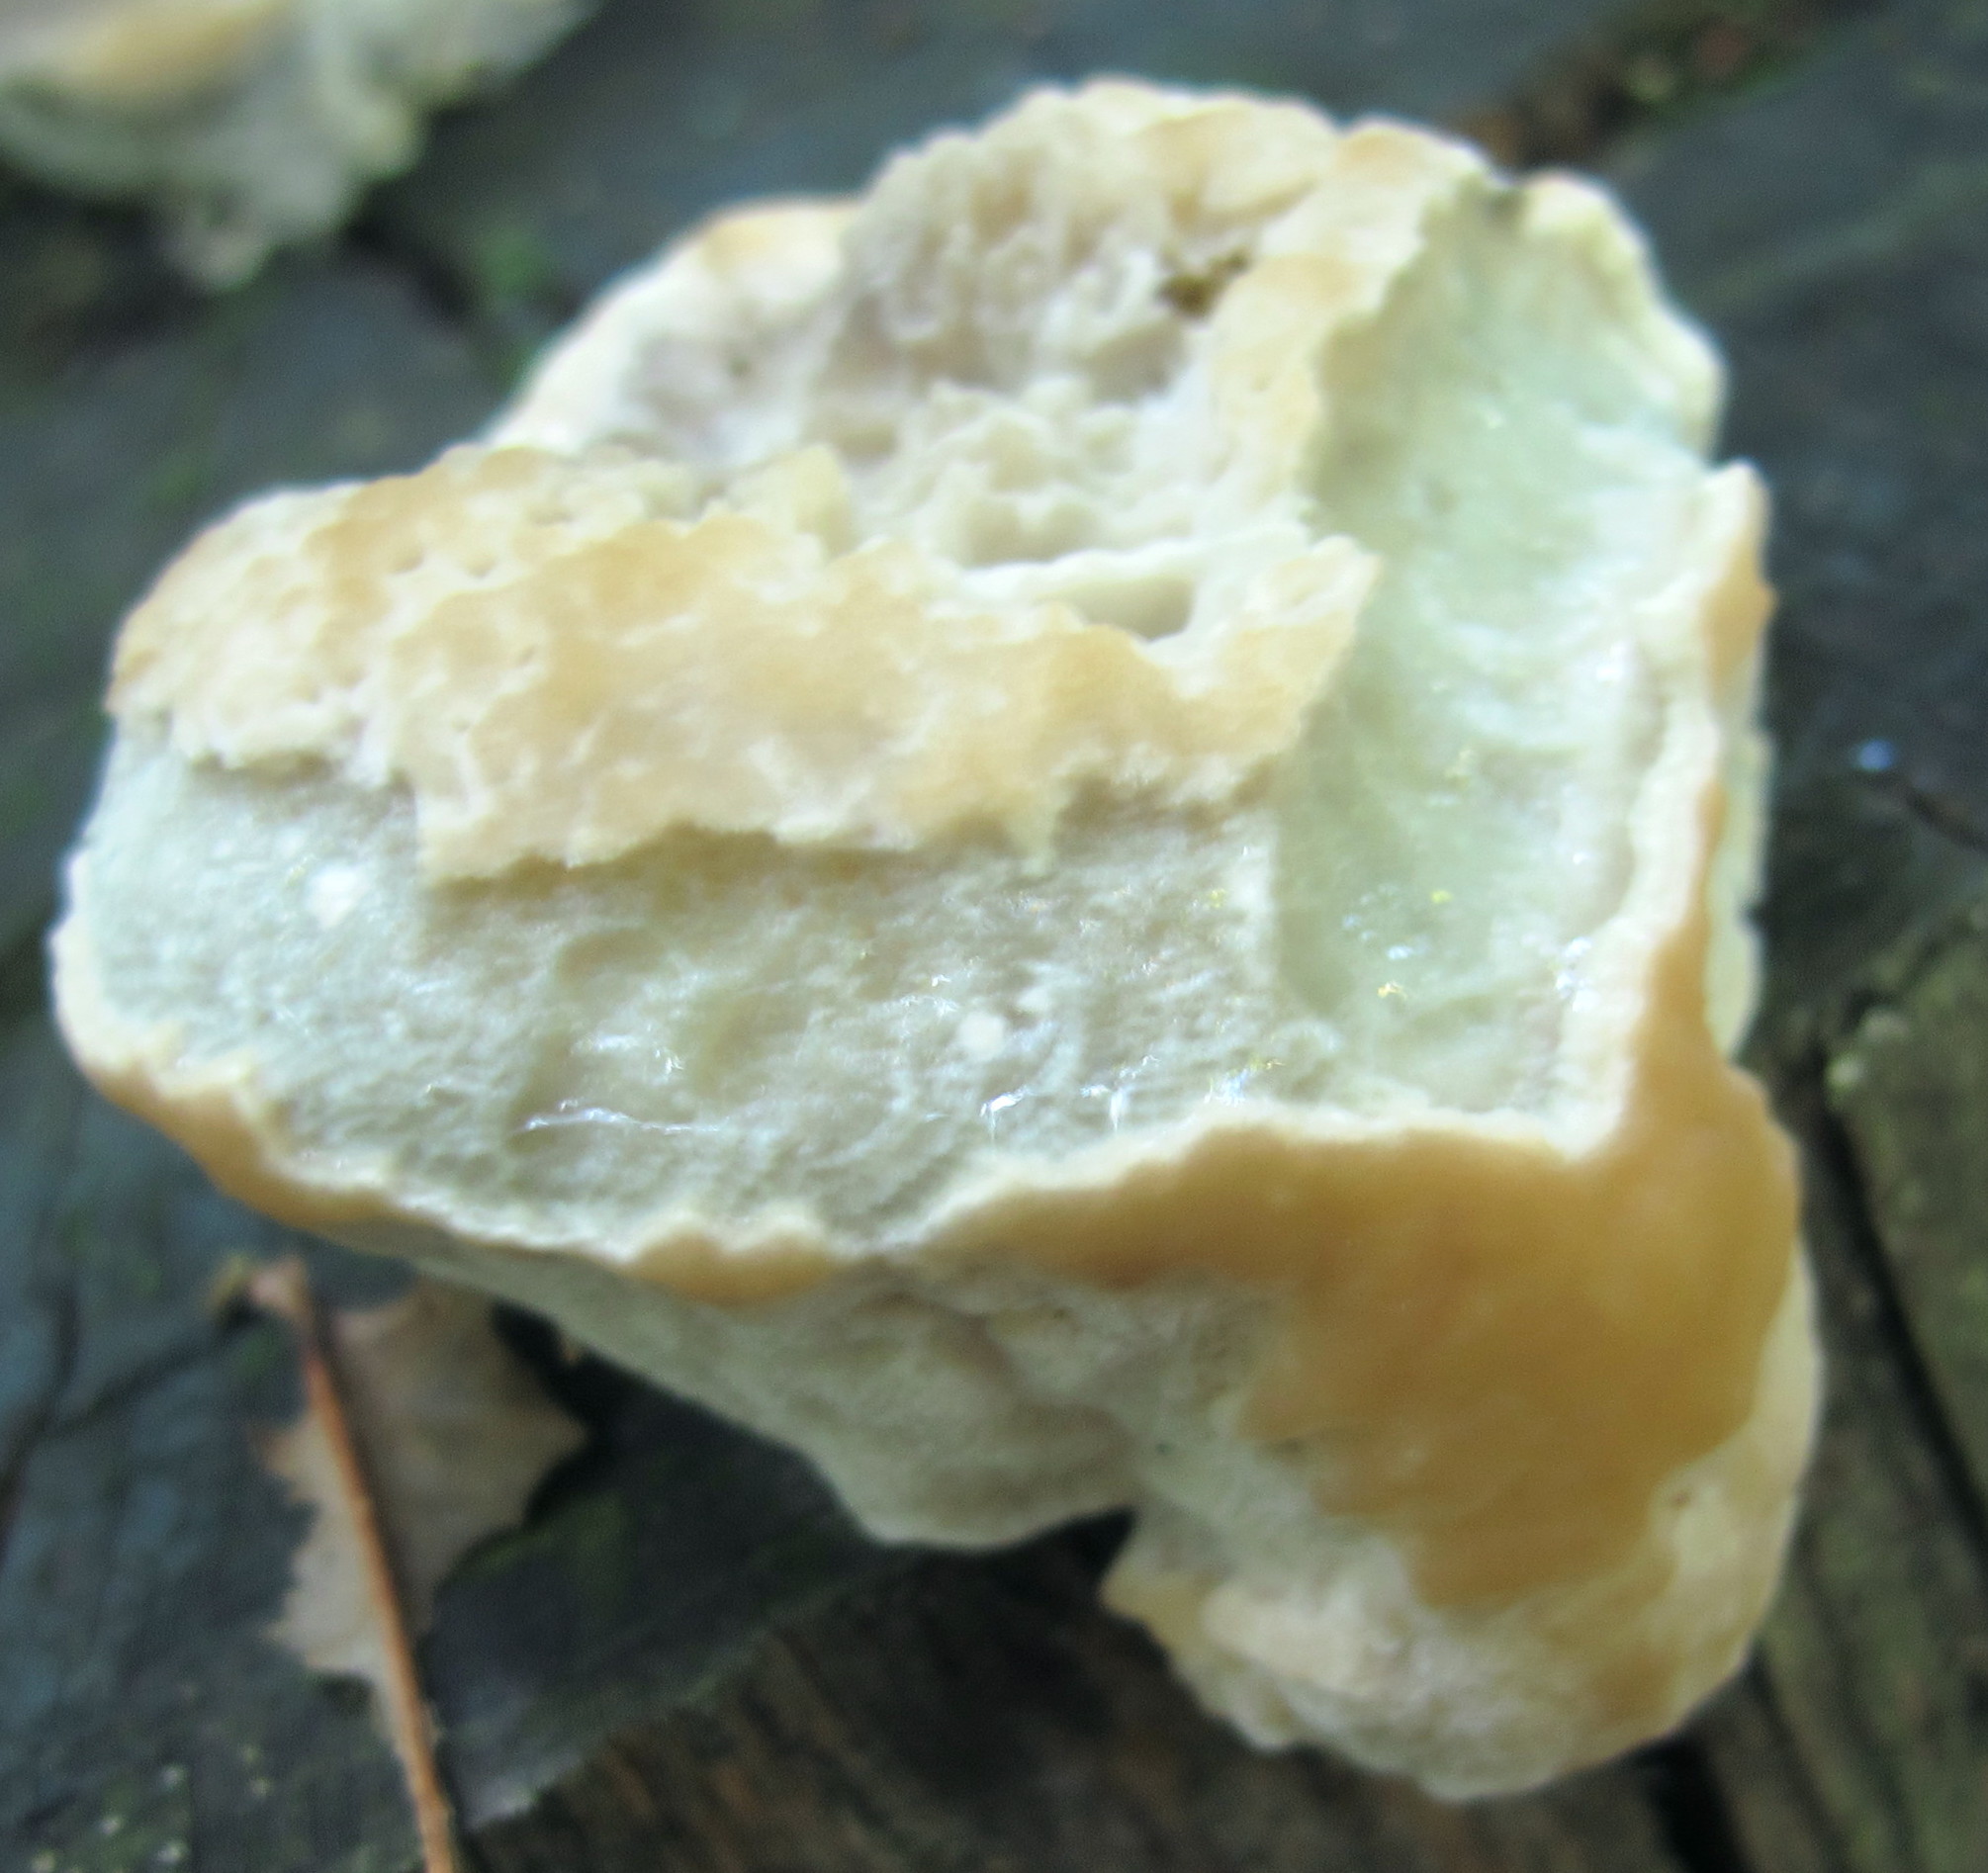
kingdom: Fungi
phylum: Basidiomycota
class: Agaricomycetes
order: Polyporales
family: Fomitopsidaceae
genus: Niveoporofomes
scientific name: Niveoporofomes spraguei
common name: Green cheese polypore
